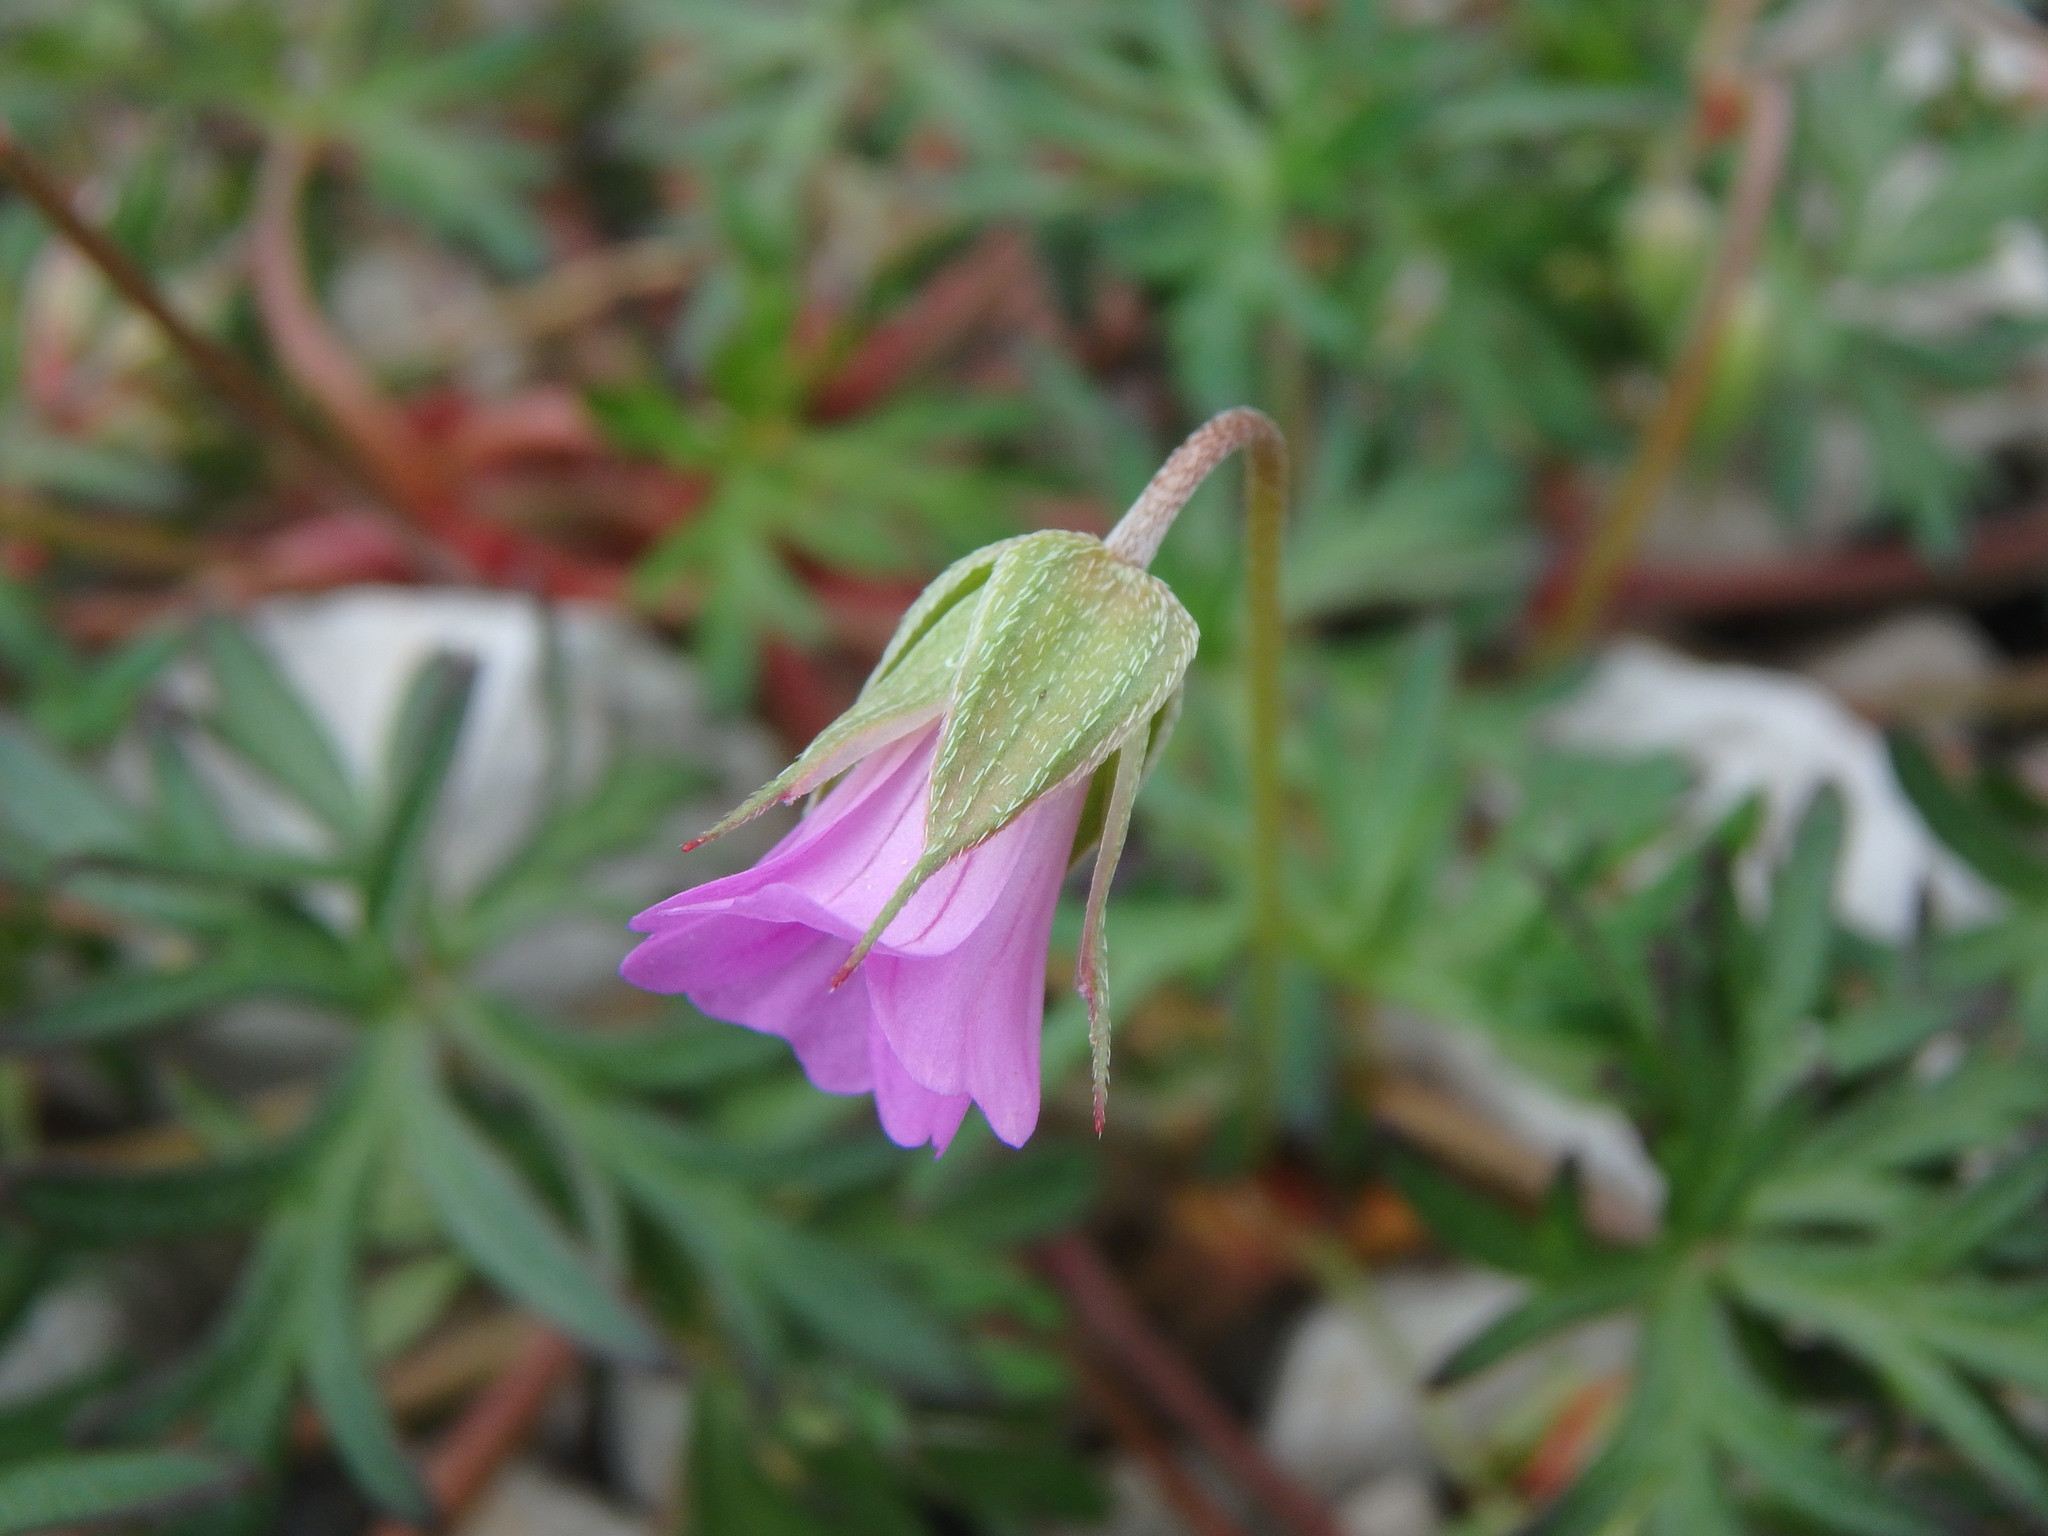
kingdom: Plantae
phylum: Tracheophyta
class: Magnoliopsida
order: Geraniales
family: Geraniaceae
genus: Geranium
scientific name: Geranium columbinum
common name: Long-stalked crane's-bill
